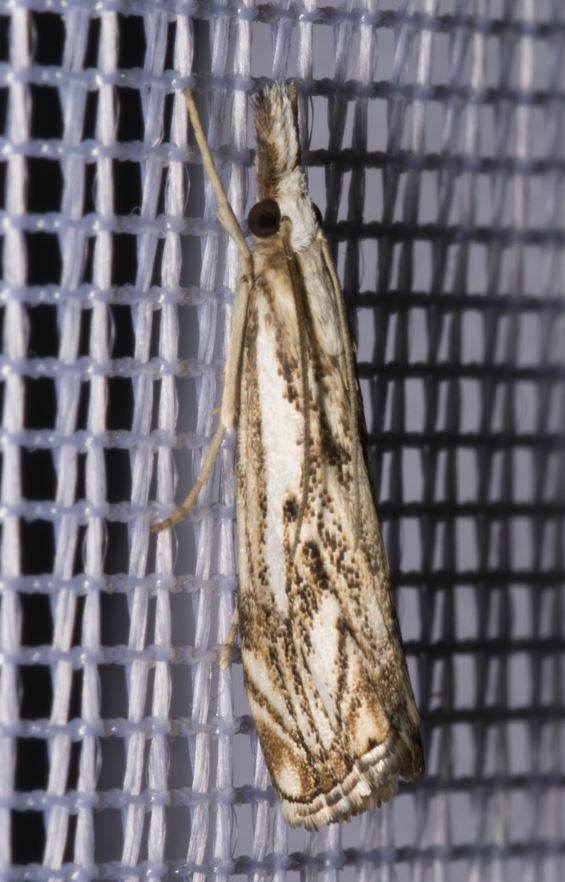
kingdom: Animalia
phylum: Arthropoda
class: Insecta
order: Lepidoptera
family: Crambidae
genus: Catoptria
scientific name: Catoptria falsella
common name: Chequered grass-veneer
